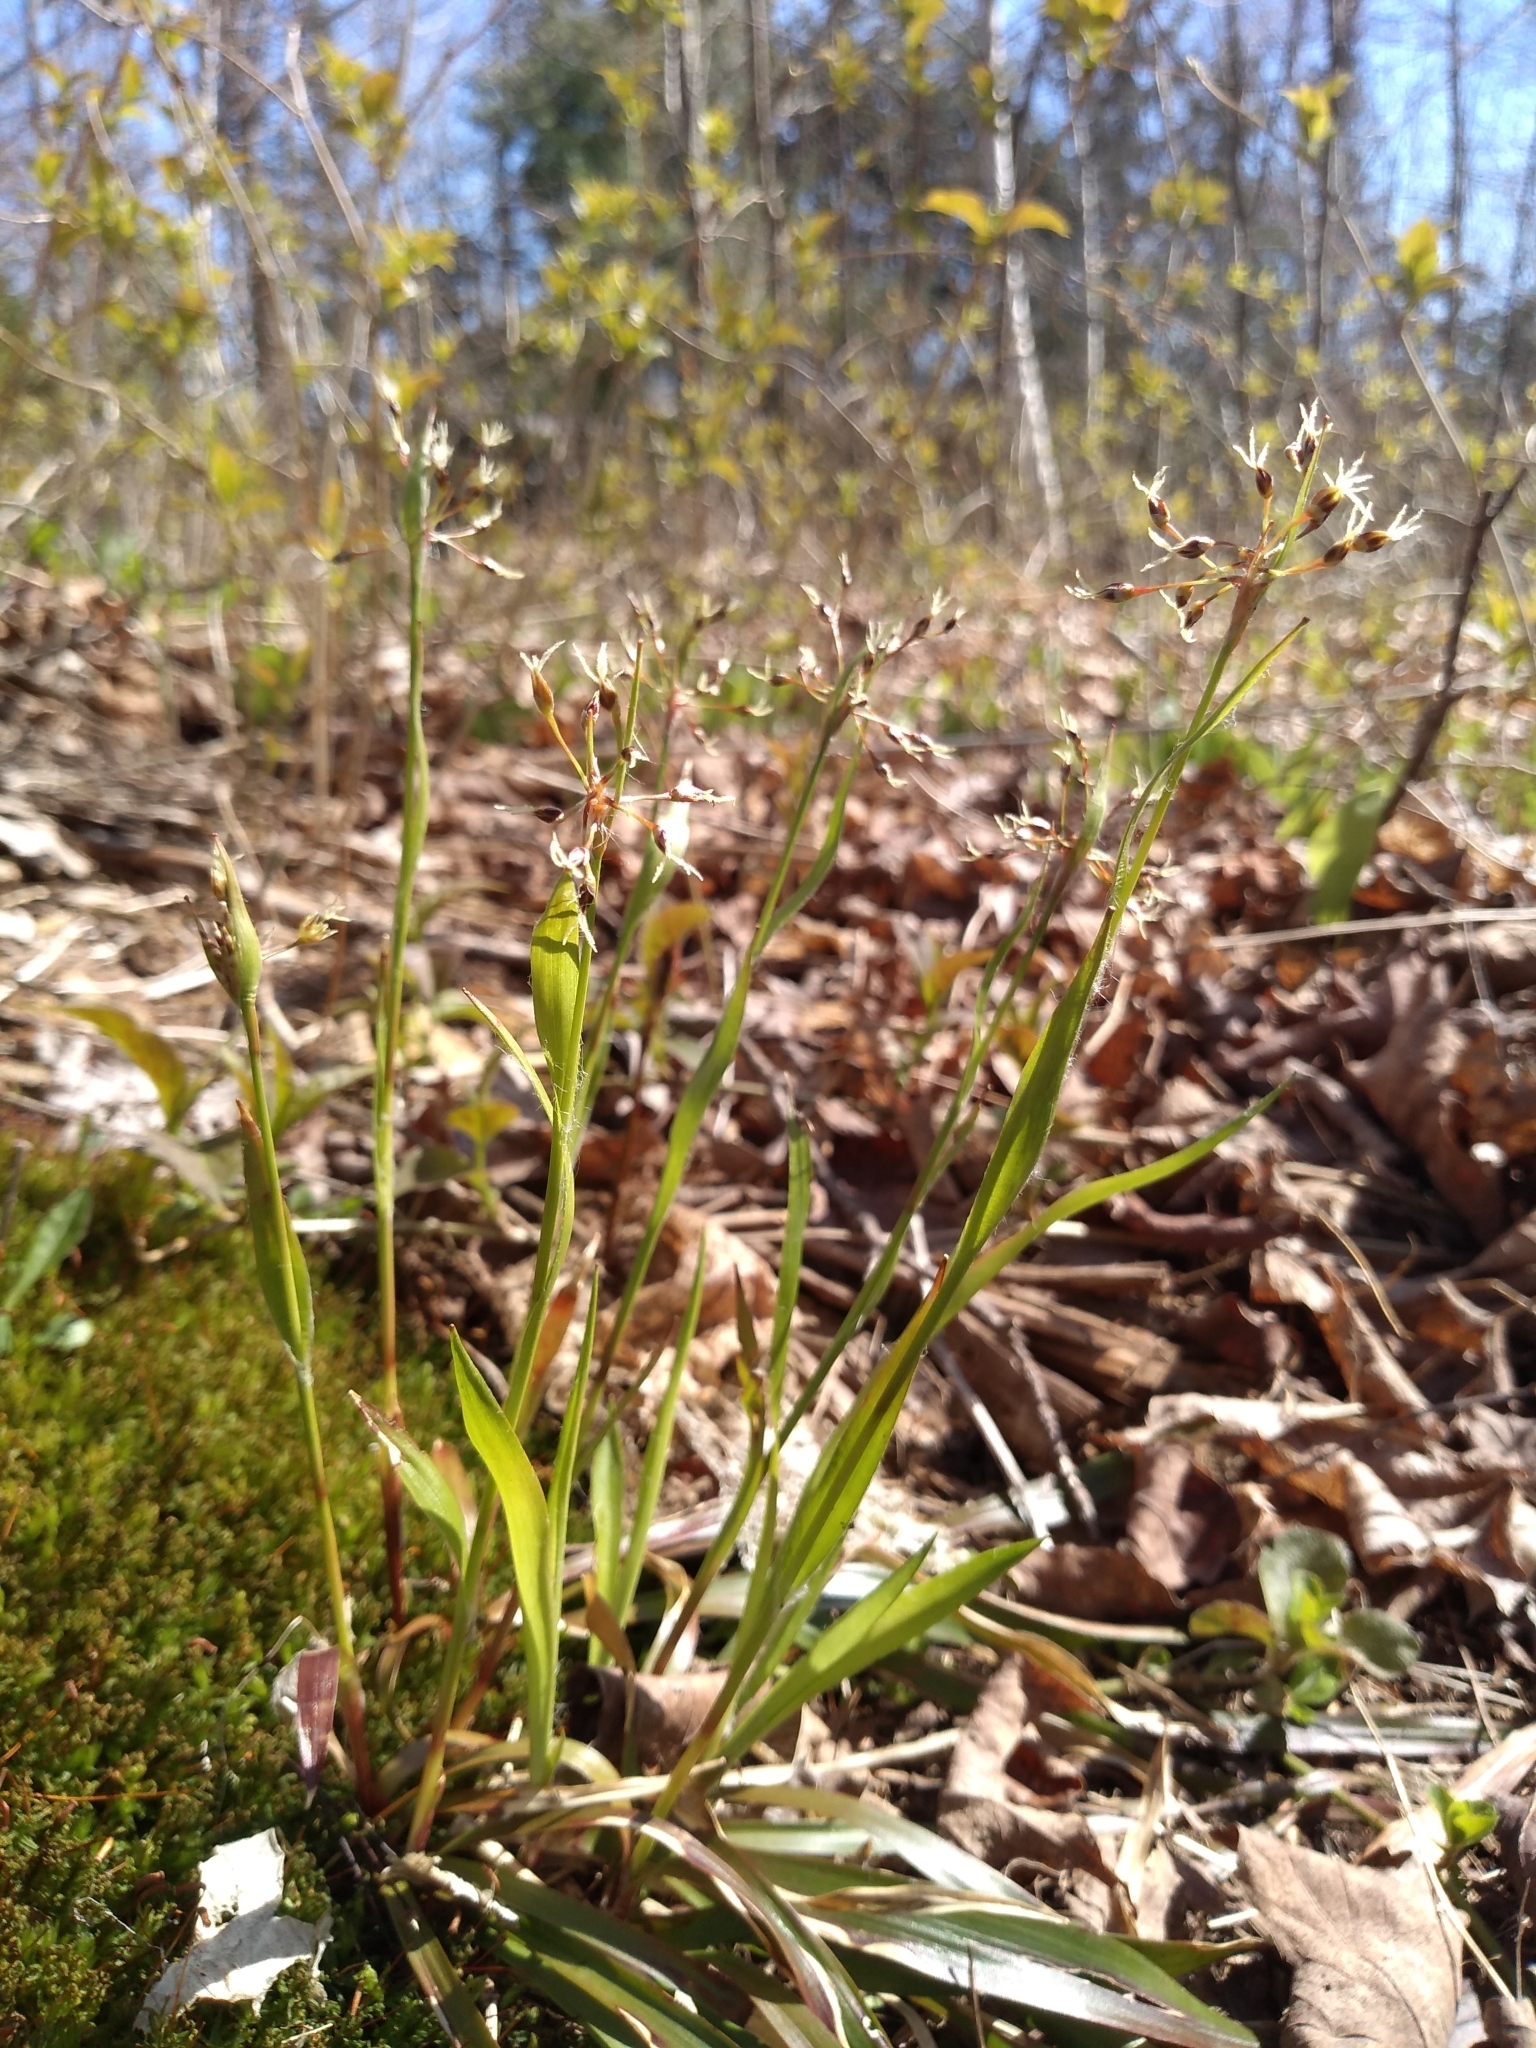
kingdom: Plantae
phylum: Tracheophyta
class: Liliopsida
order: Poales
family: Juncaceae
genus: Luzula
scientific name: Luzula acuminata
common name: Hairy woodrush
